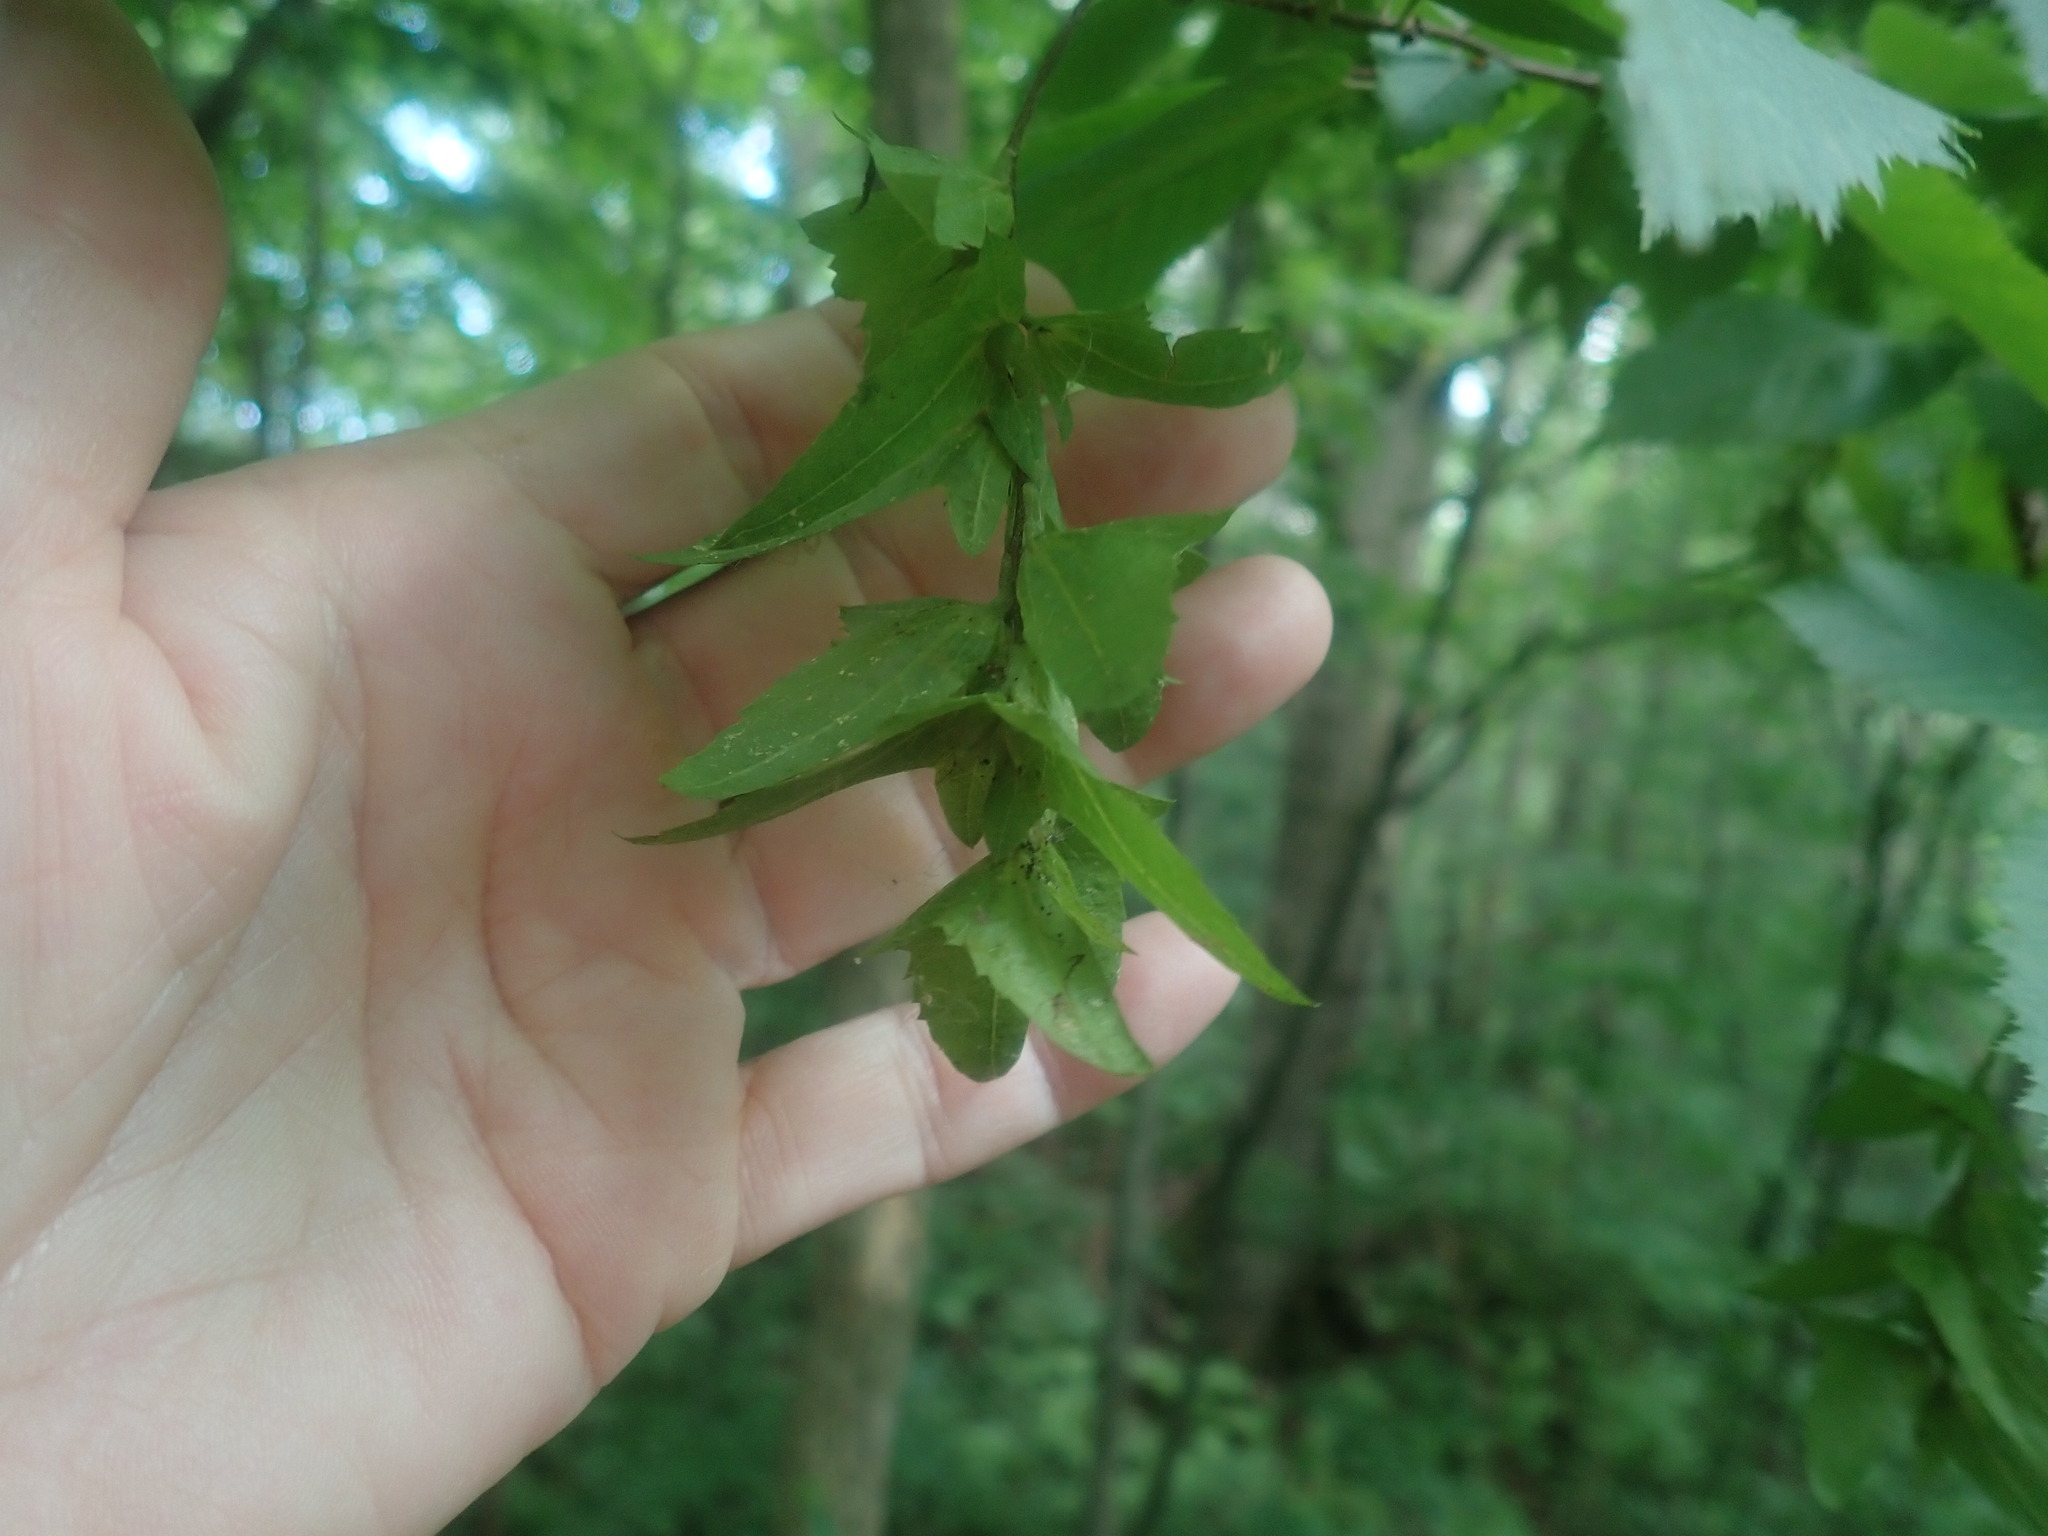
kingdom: Plantae
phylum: Tracheophyta
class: Magnoliopsida
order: Fagales
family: Betulaceae
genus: Carpinus
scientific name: Carpinus caroliniana
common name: American hornbeam
